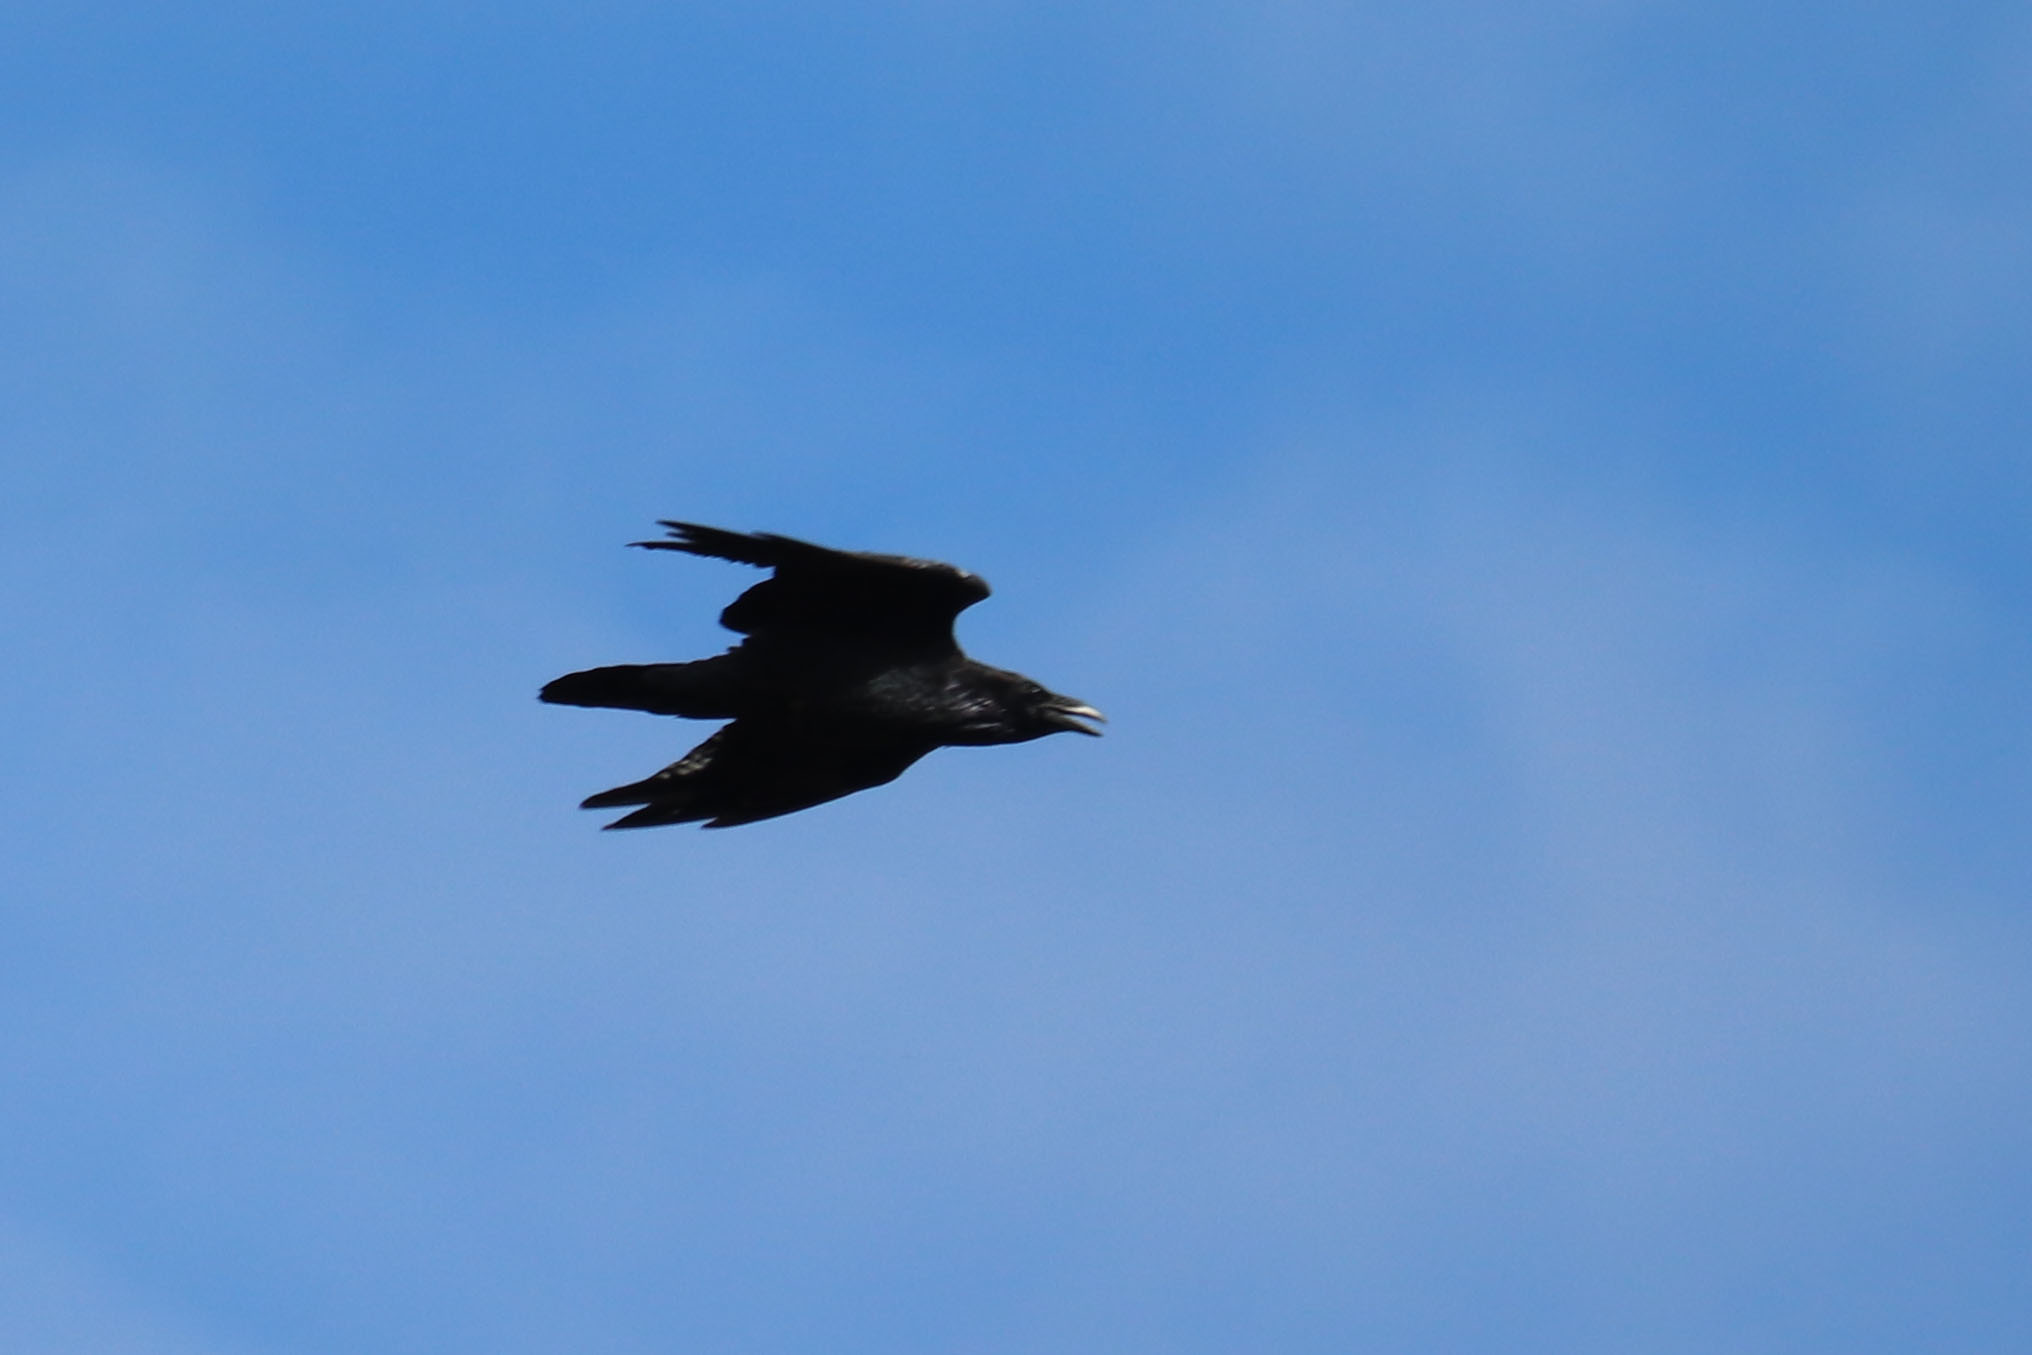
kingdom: Animalia
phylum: Chordata
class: Aves
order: Passeriformes
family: Corvidae
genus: Corvus
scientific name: Corvus corax
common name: Common raven
